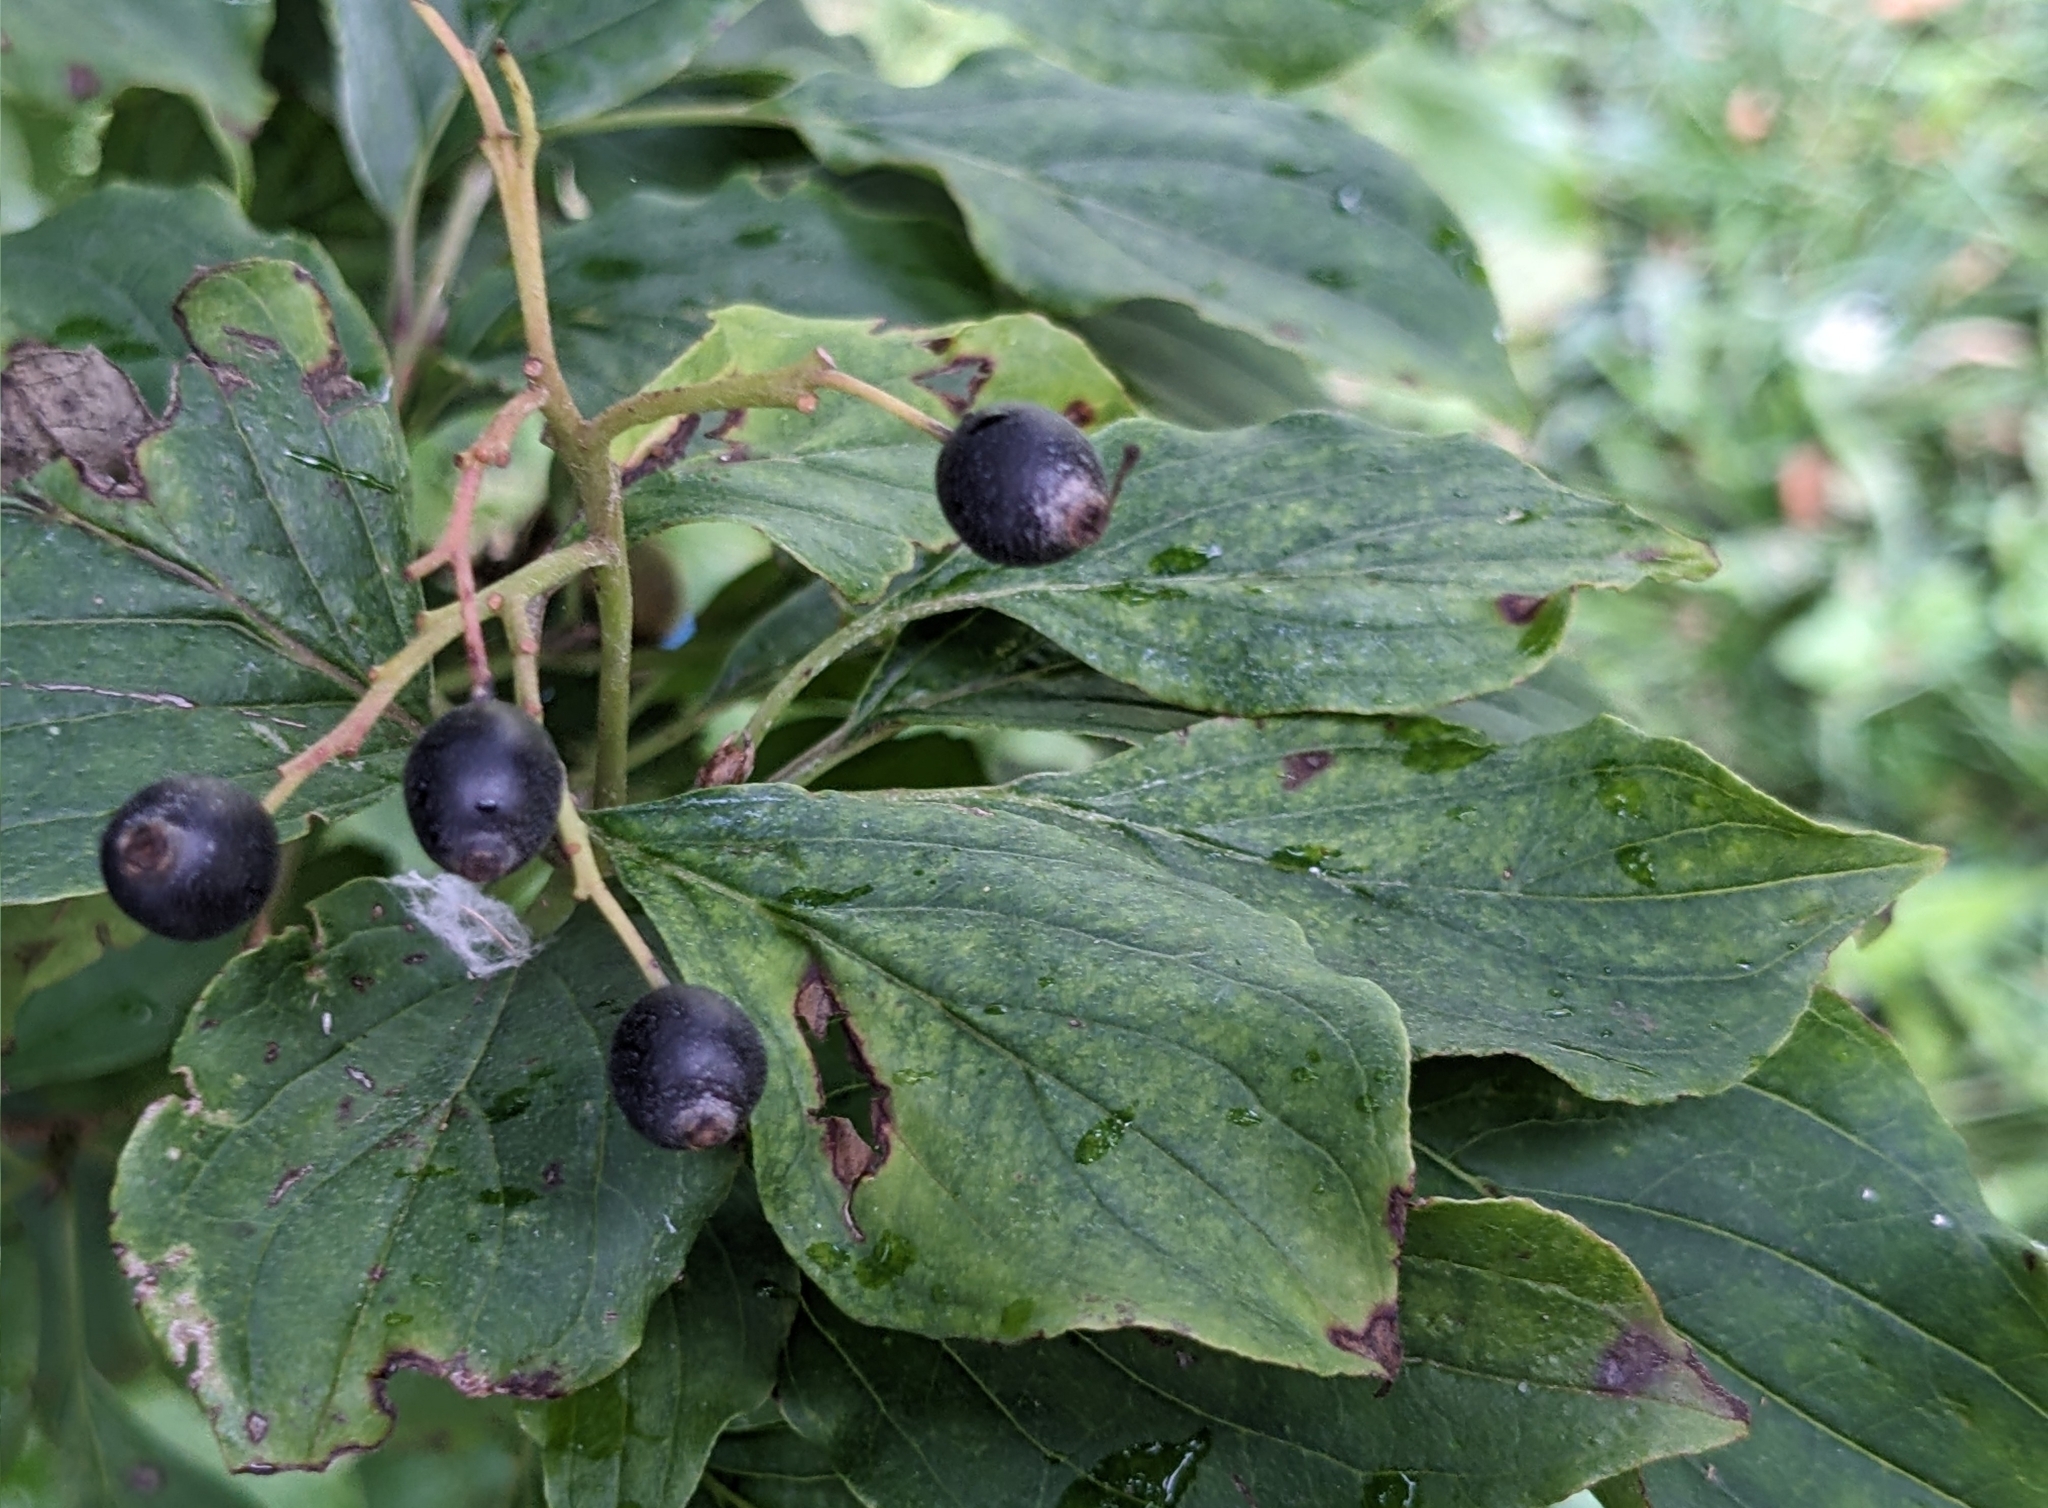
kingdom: Plantae
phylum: Tracheophyta
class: Magnoliopsida
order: Cornales
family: Cornaceae
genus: Cornus
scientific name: Cornus sanguinea
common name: Dogwood
